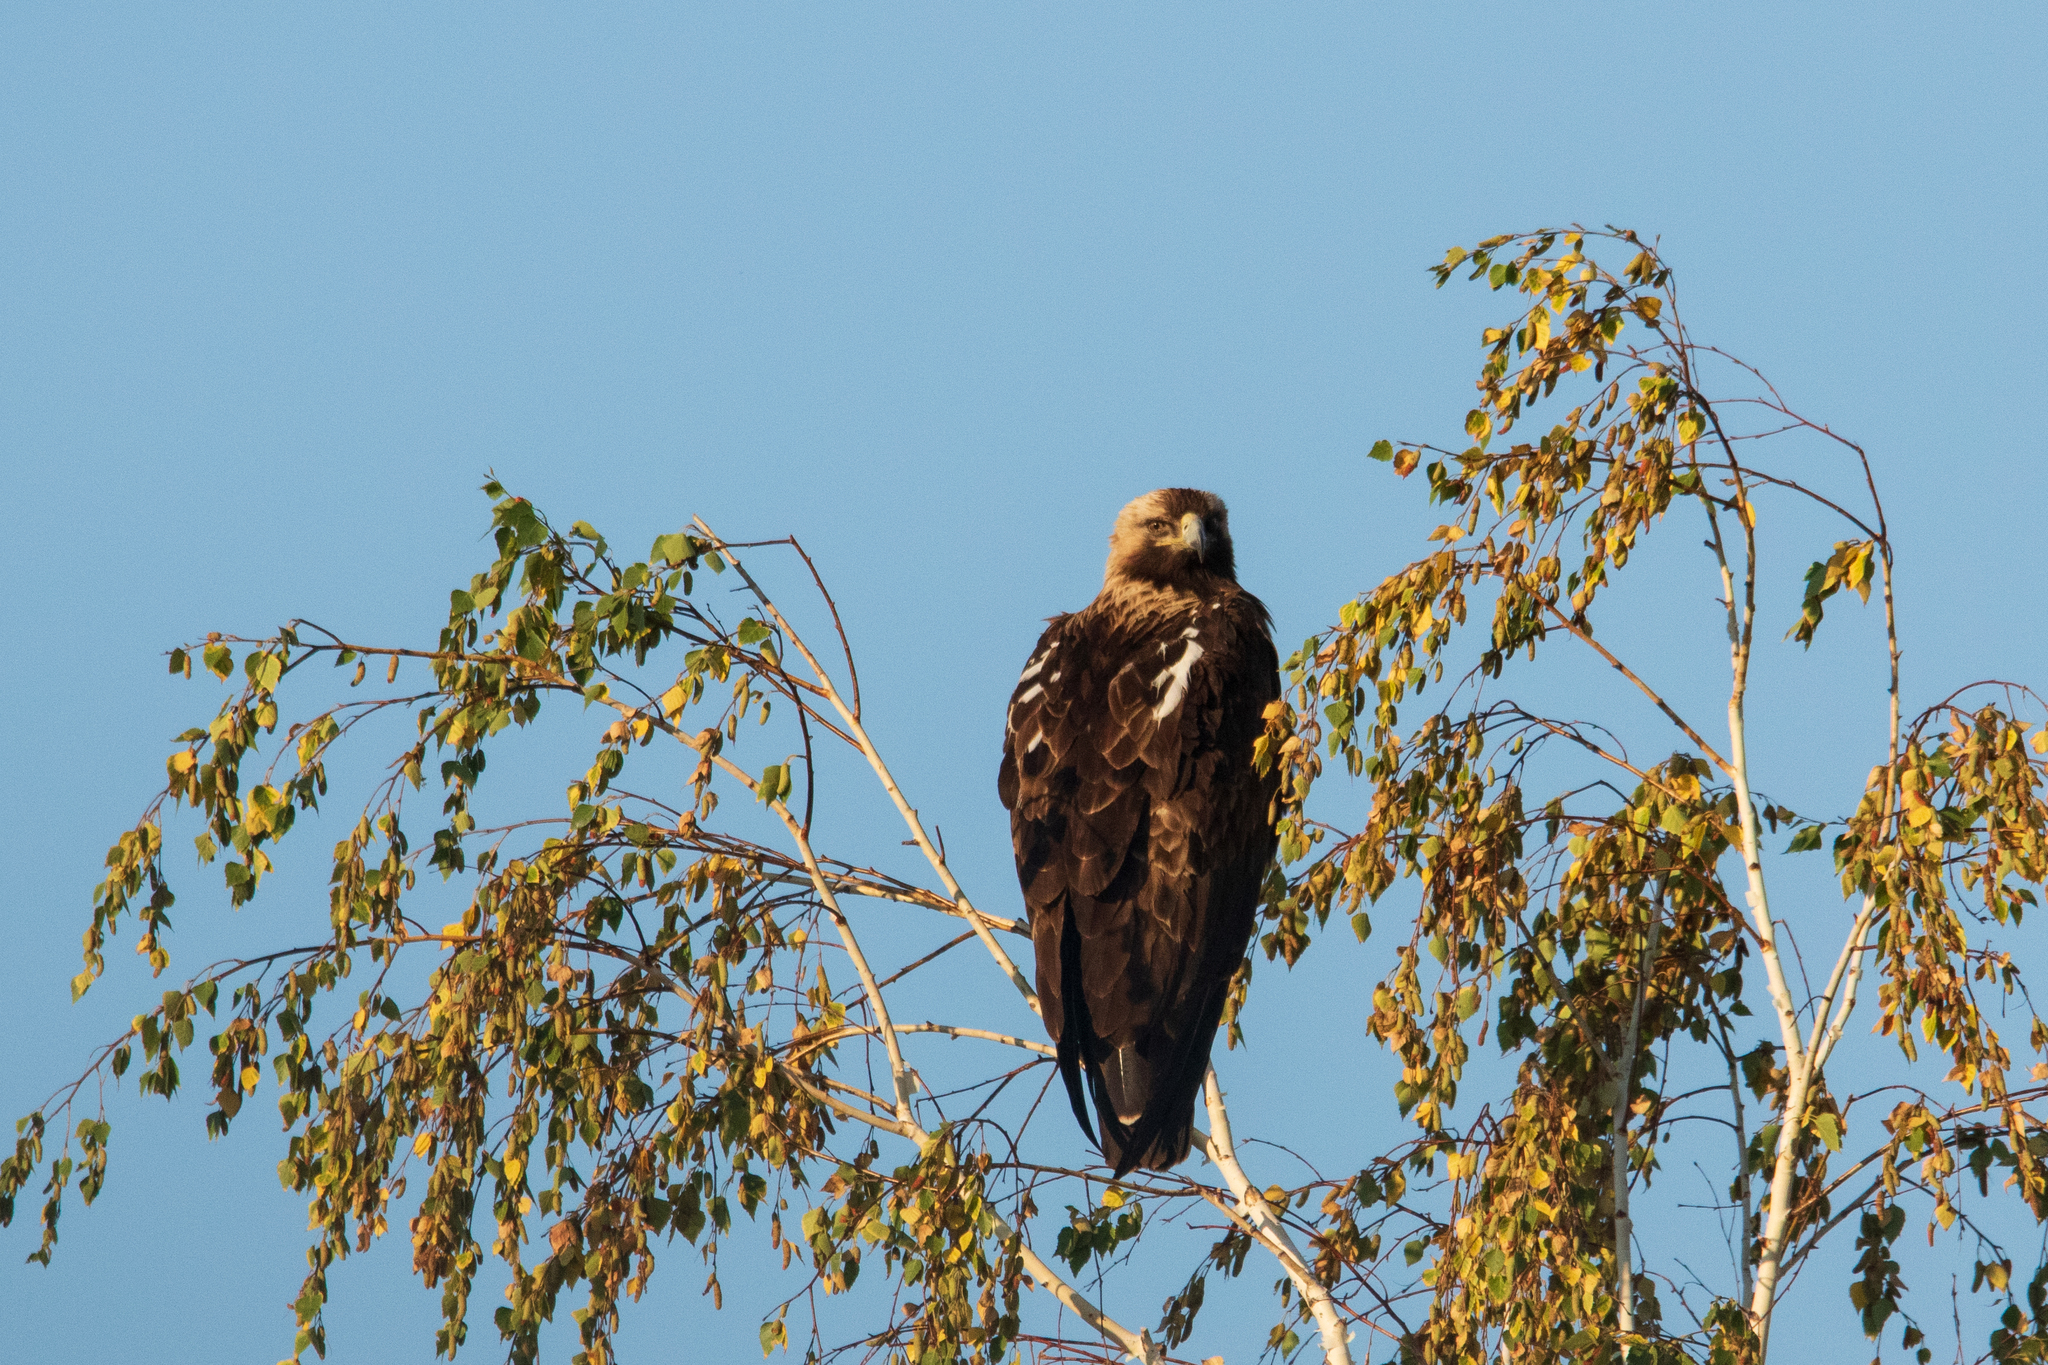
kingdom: Animalia
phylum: Chordata
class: Aves
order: Accipitriformes
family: Accipitridae
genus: Aquila
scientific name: Aquila heliaca
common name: Eastern imperial eagle
